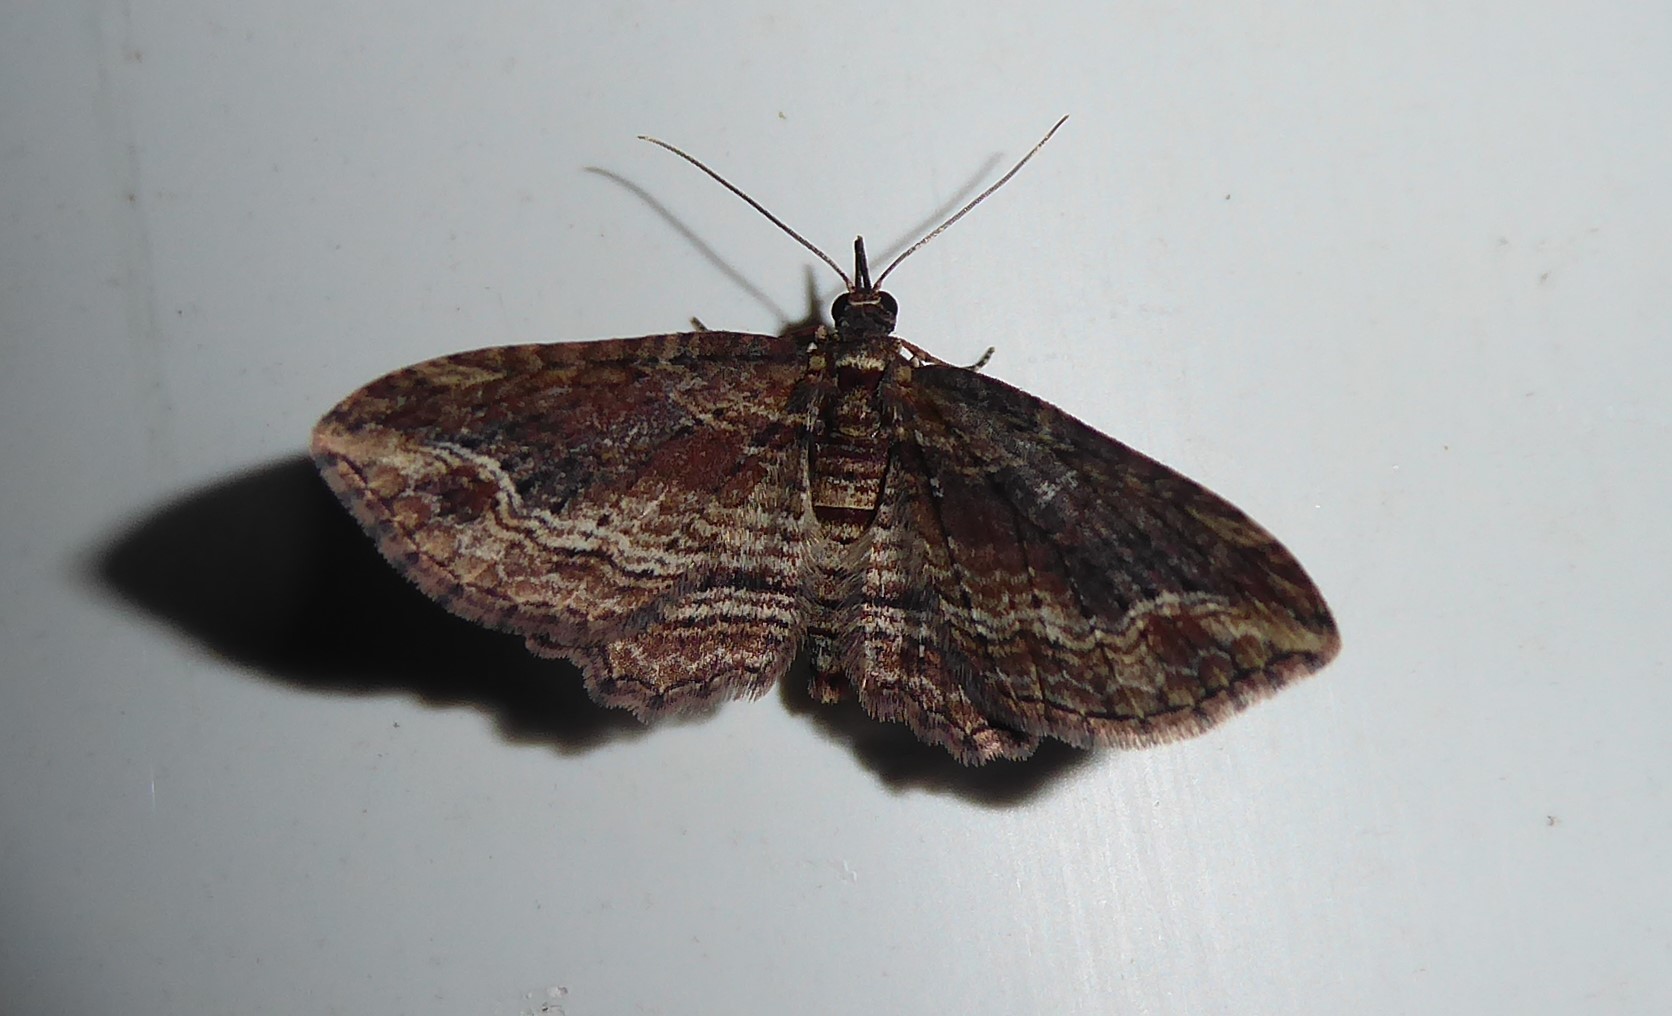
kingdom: Animalia
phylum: Arthropoda
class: Insecta
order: Lepidoptera
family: Geometridae
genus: Chloroclystis
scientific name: Chloroclystis filata
